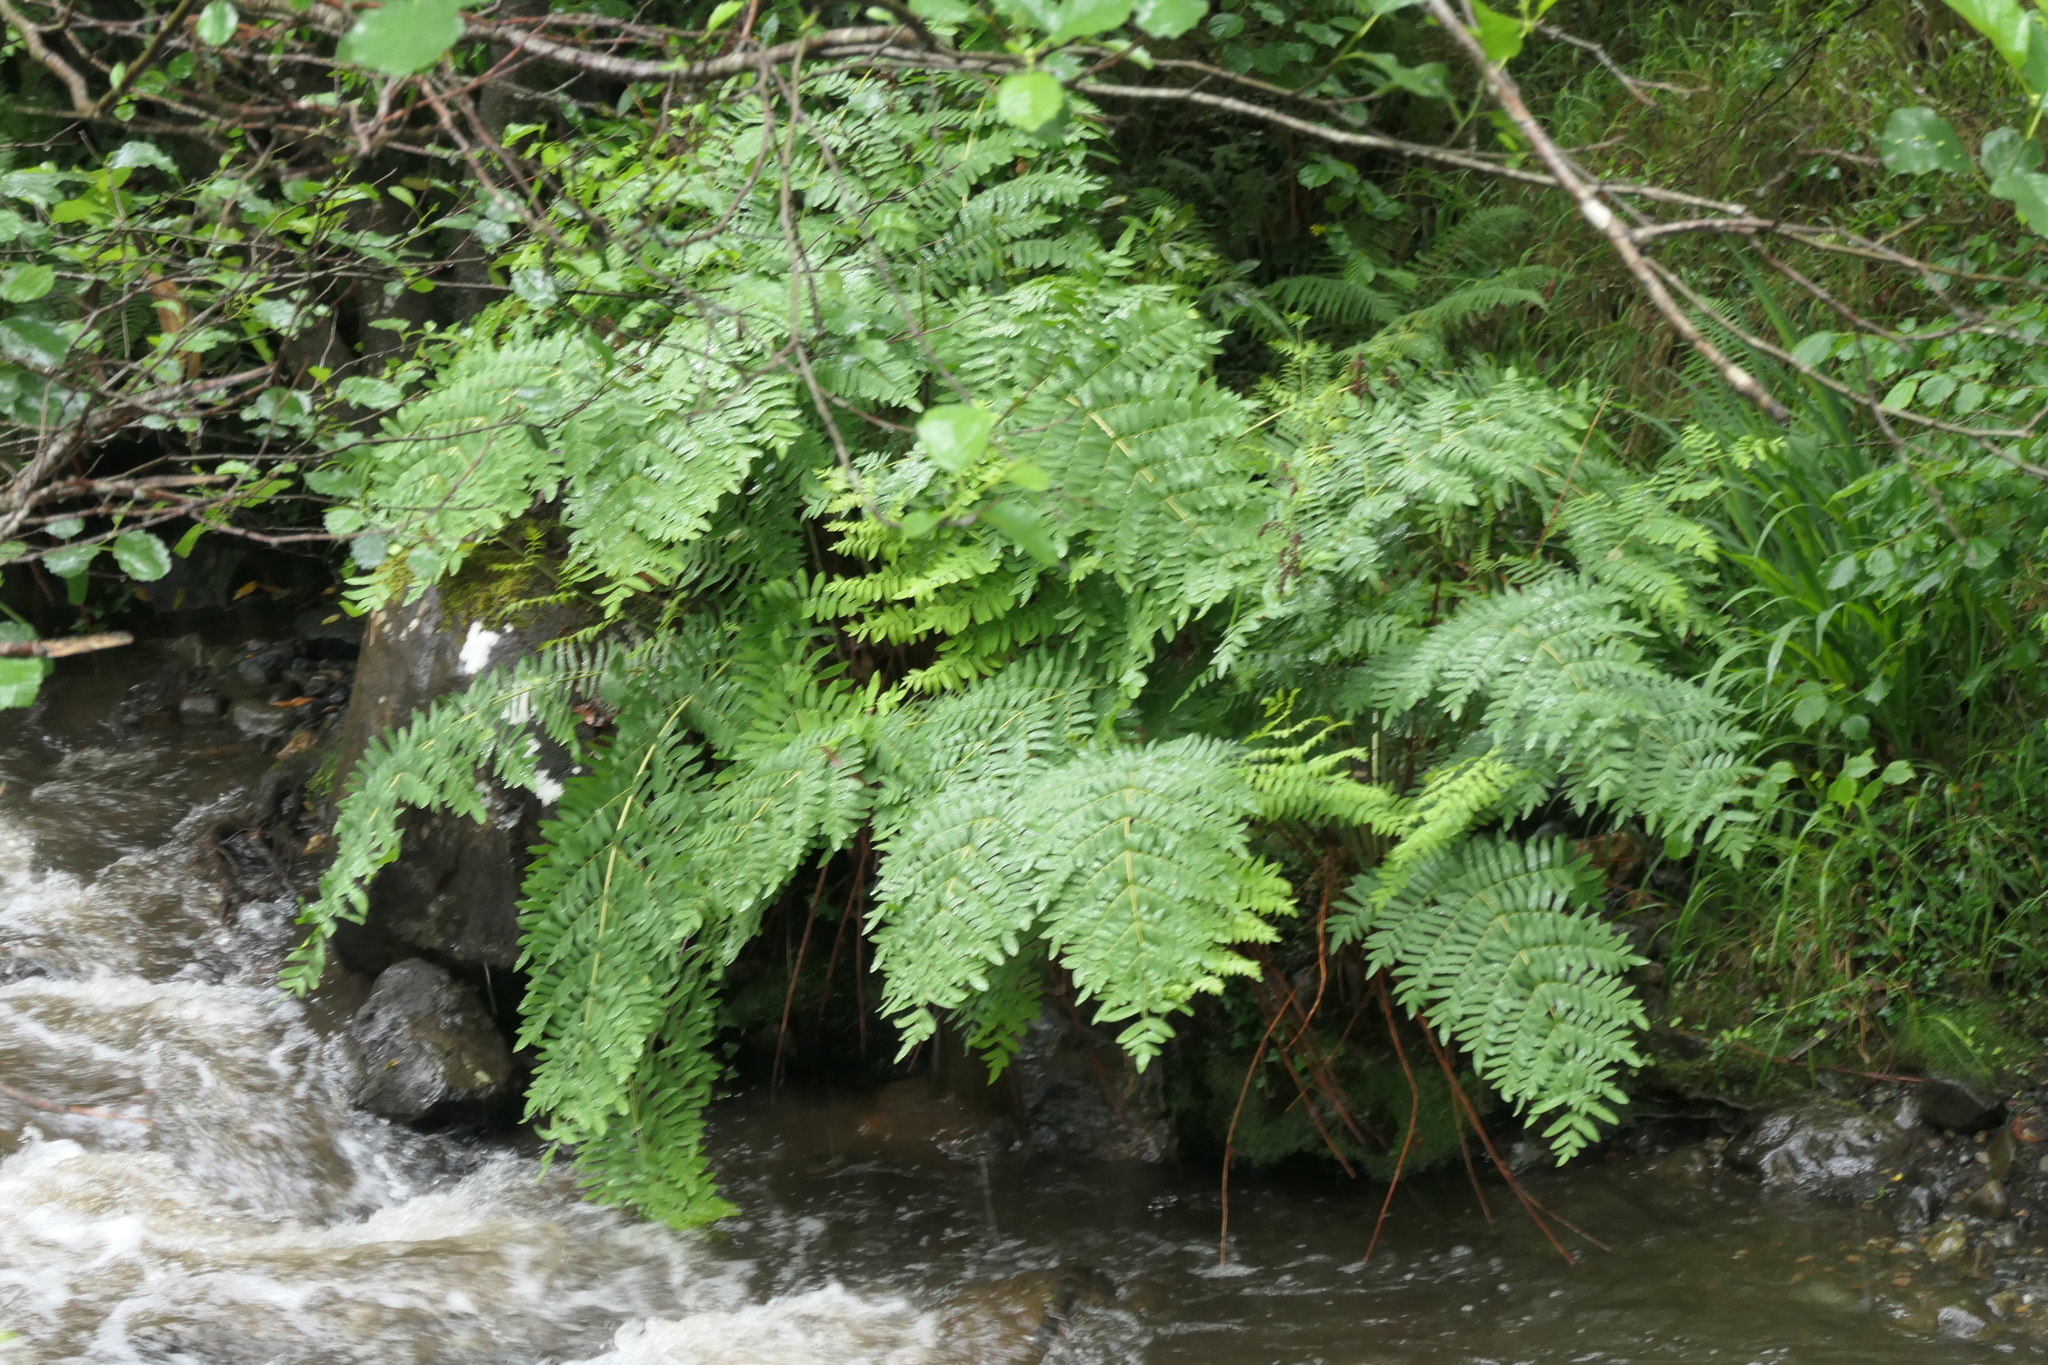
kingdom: Plantae
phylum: Tracheophyta
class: Polypodiopsida
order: Osmundales
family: Osmundaceae
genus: Osmunda
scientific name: Osmunda regalis
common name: Royal fern
